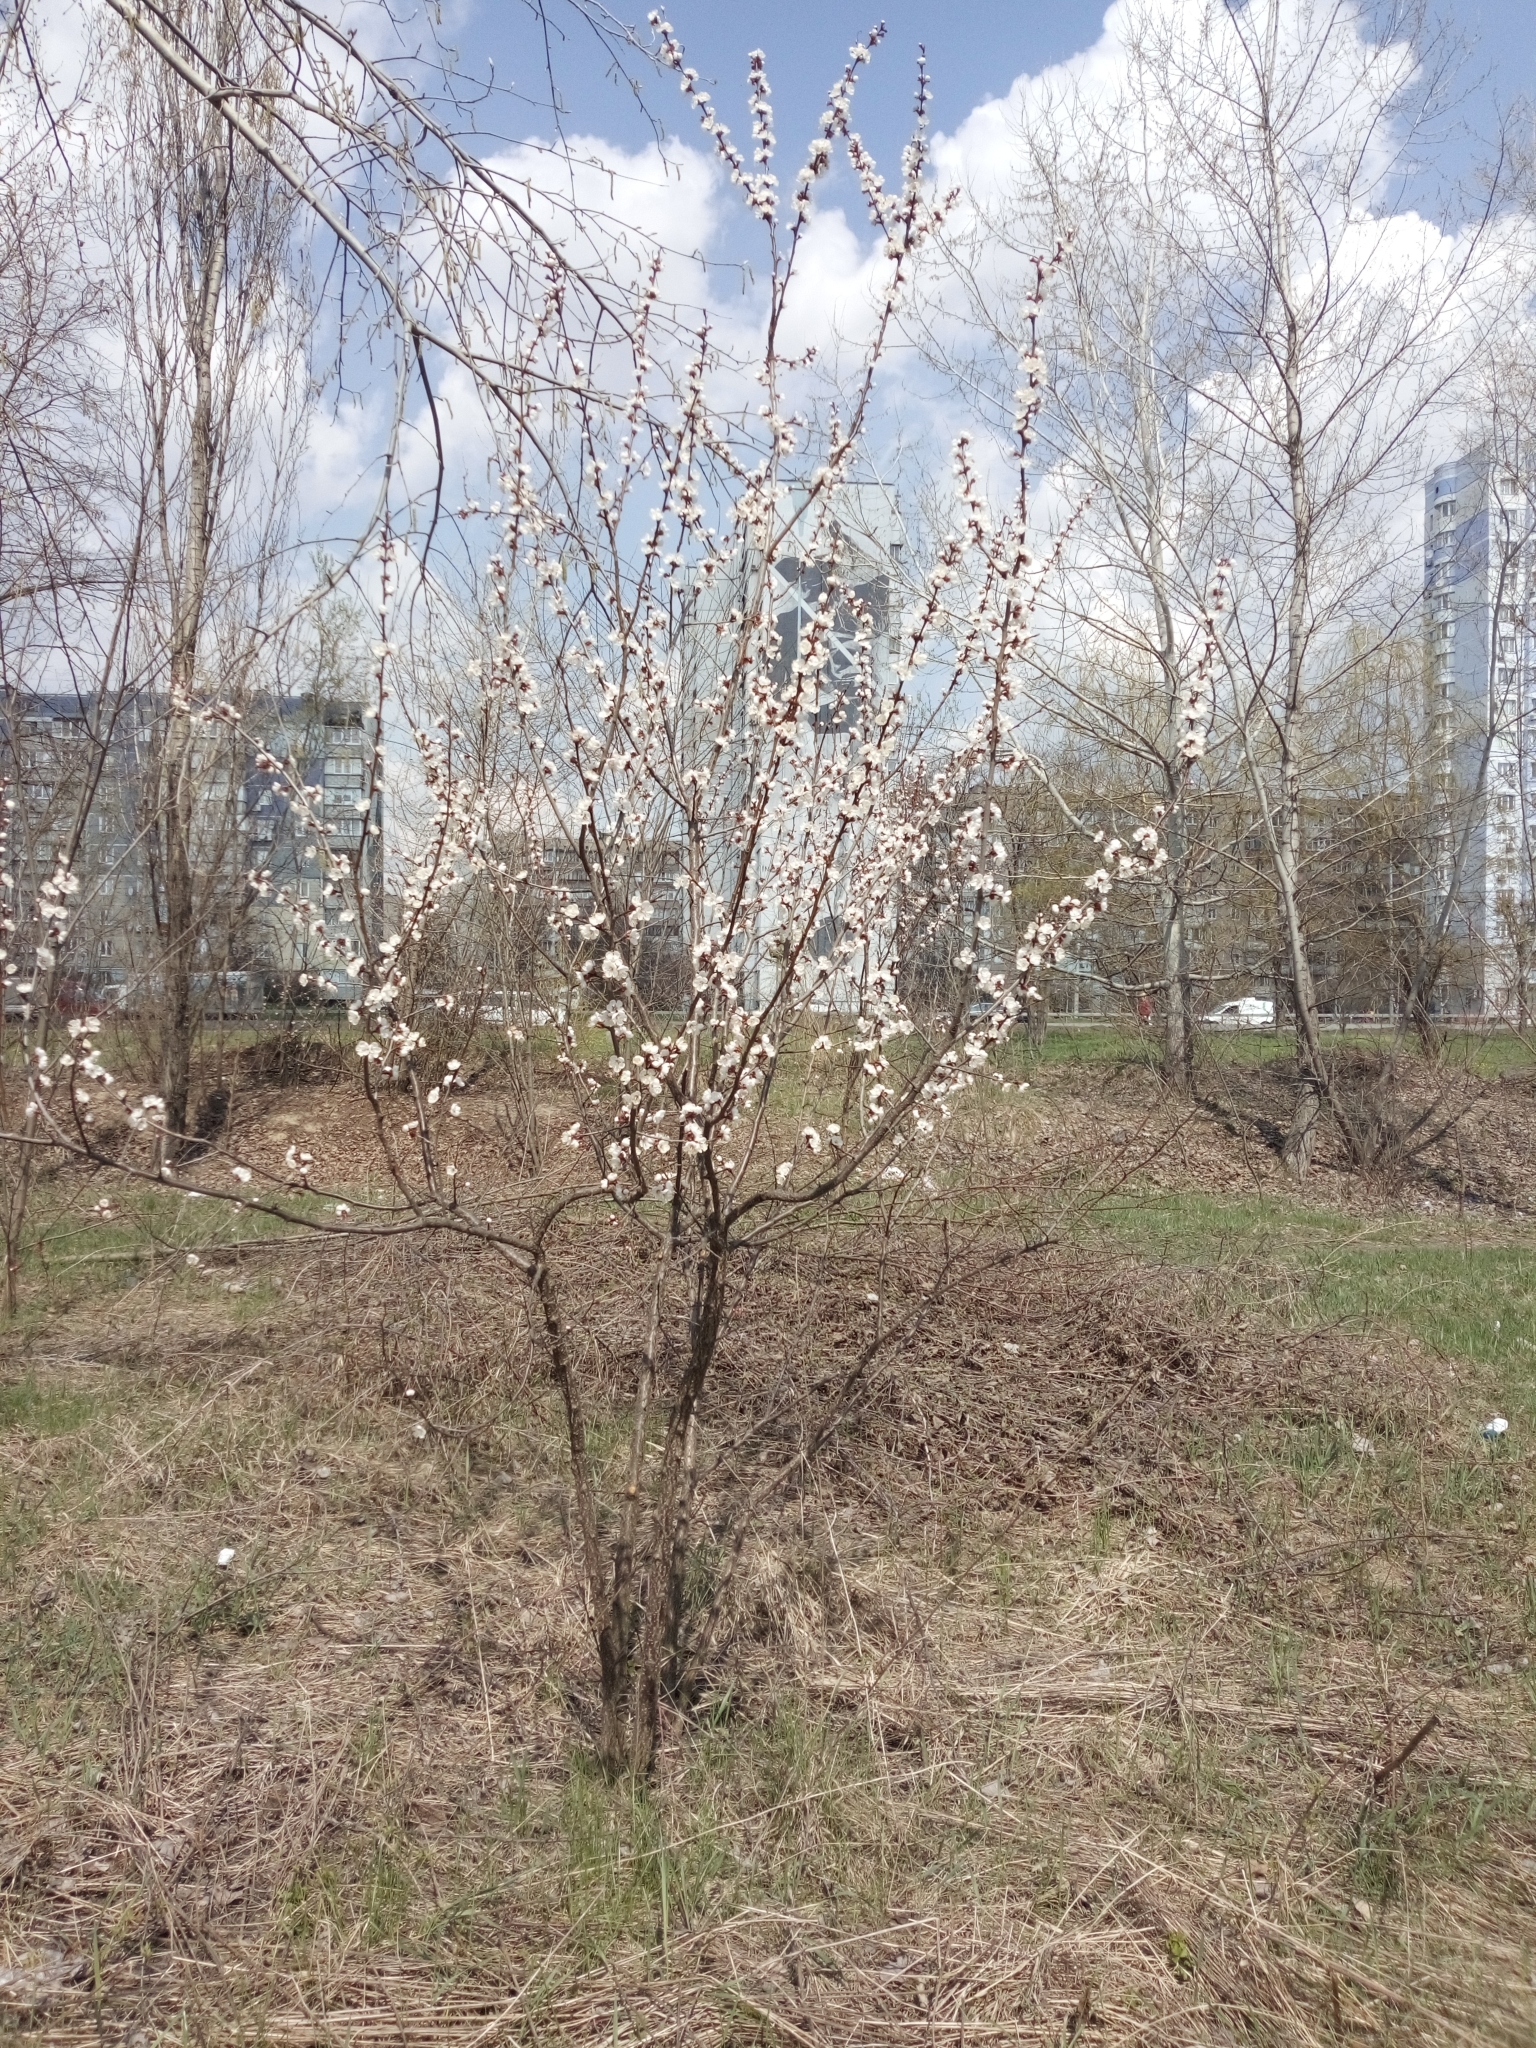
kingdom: Plantae
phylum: Tracheophyta
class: Magnoliopsida
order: Rosales
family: Rosaceae
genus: Prunus
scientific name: Prunus armeniaca
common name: Apricot
